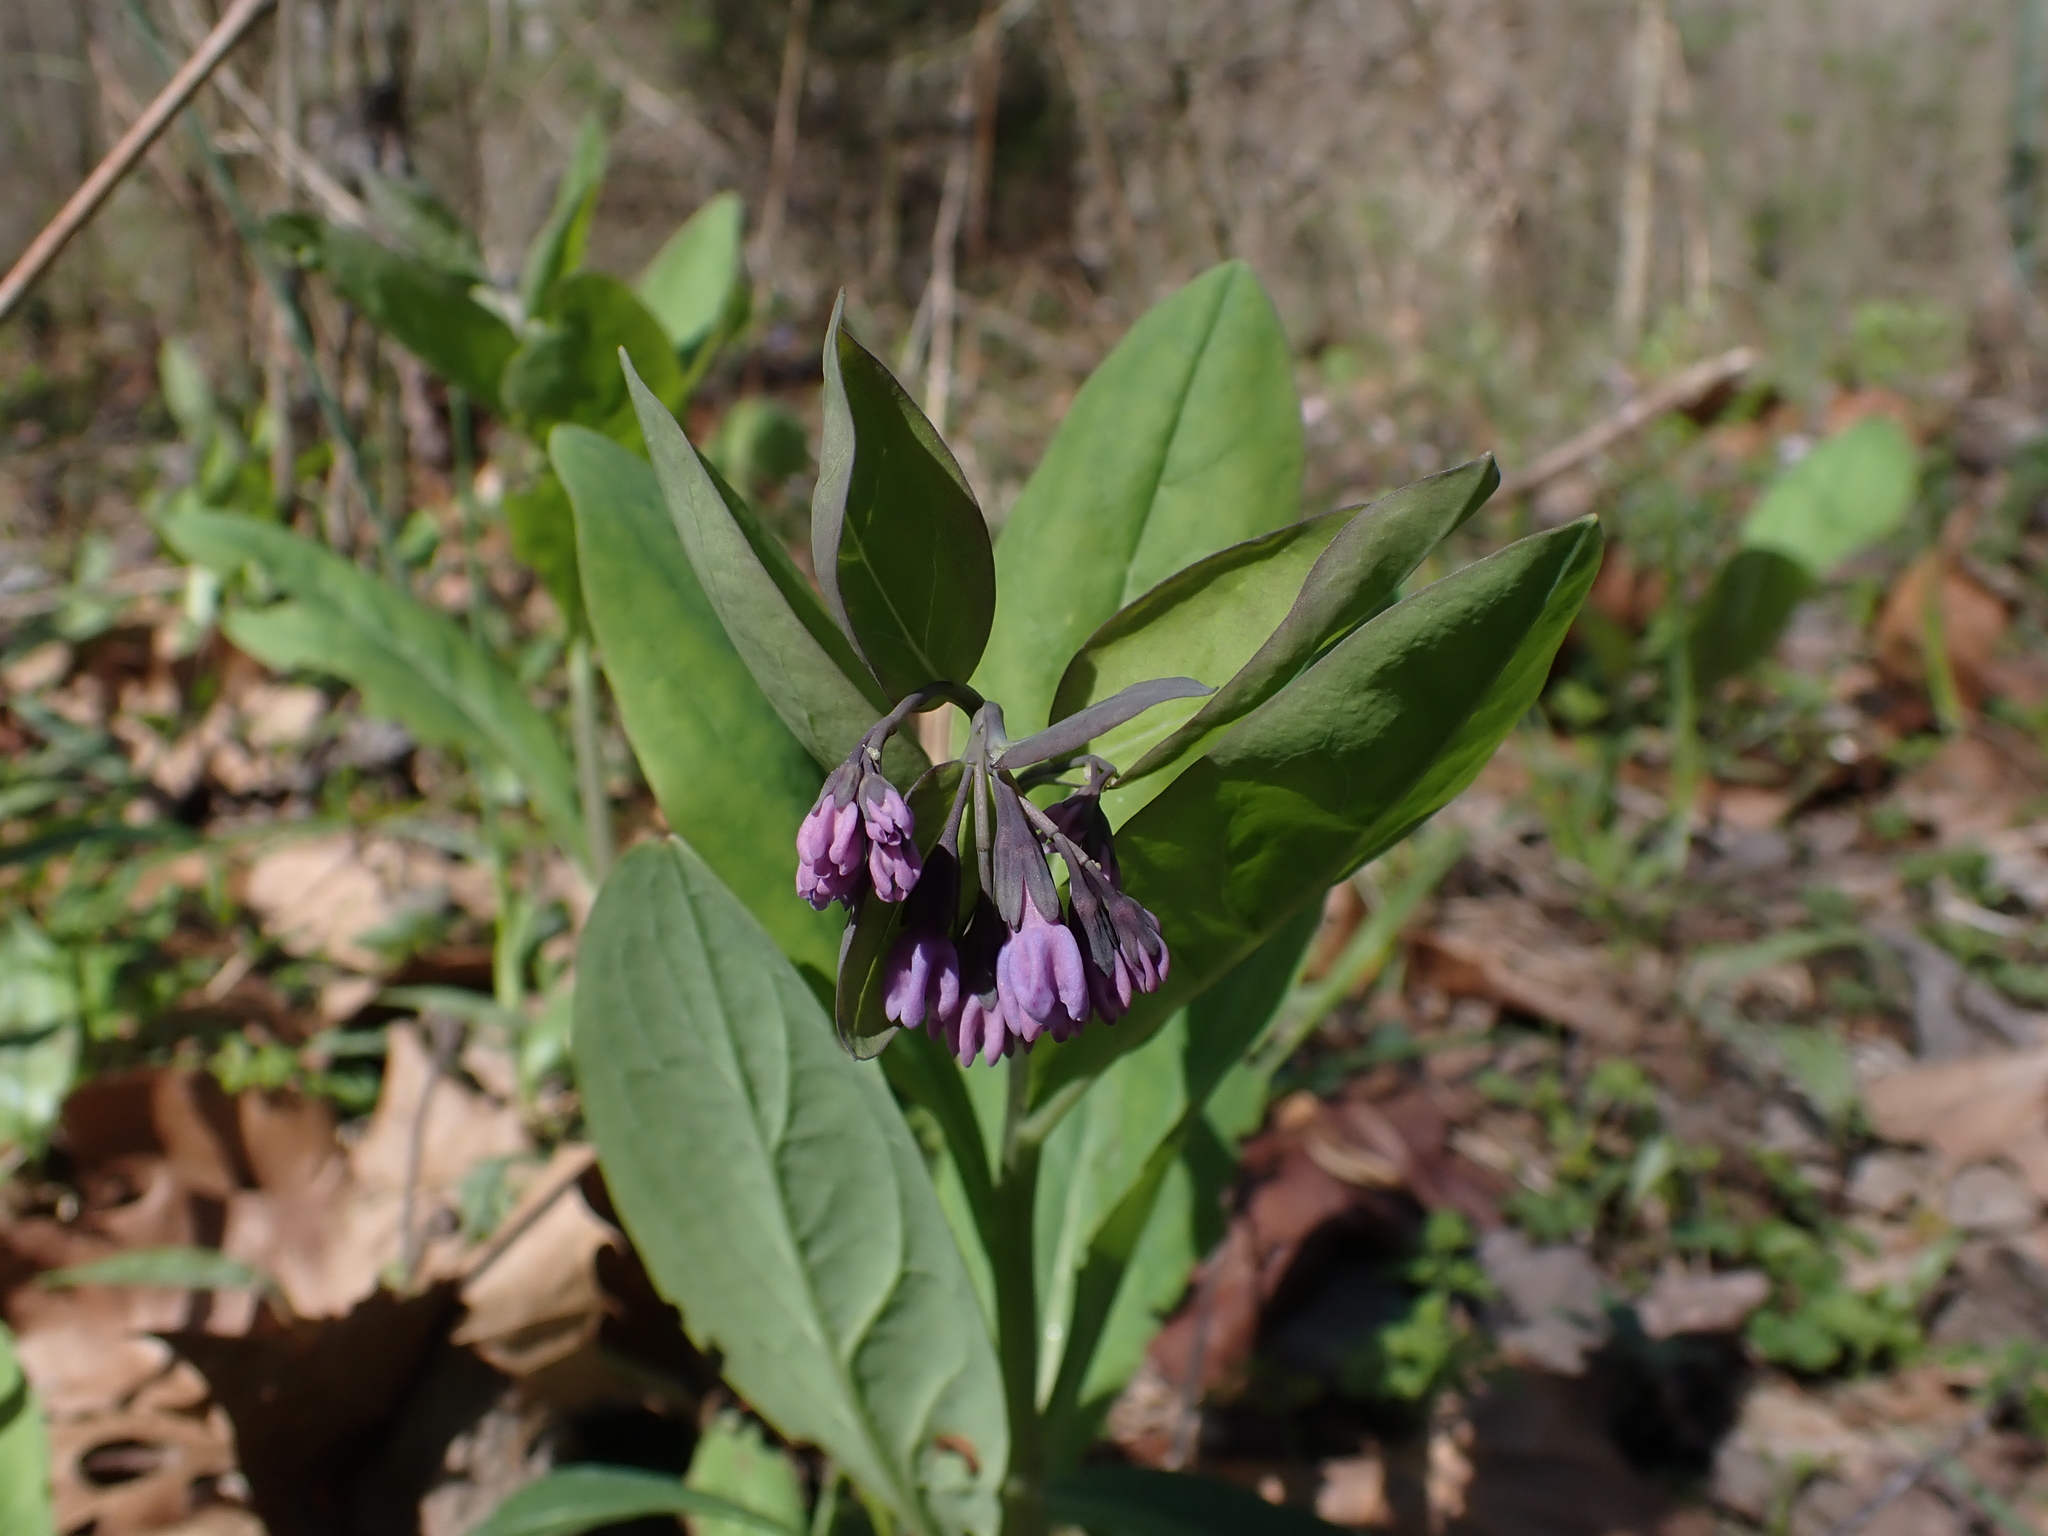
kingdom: Plantae
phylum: Tracheophyta
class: Magnoliopsida
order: Boraginales
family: Boraginaceae
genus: Mertensia
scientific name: Mertensia virginica
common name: Virginia bluebells
